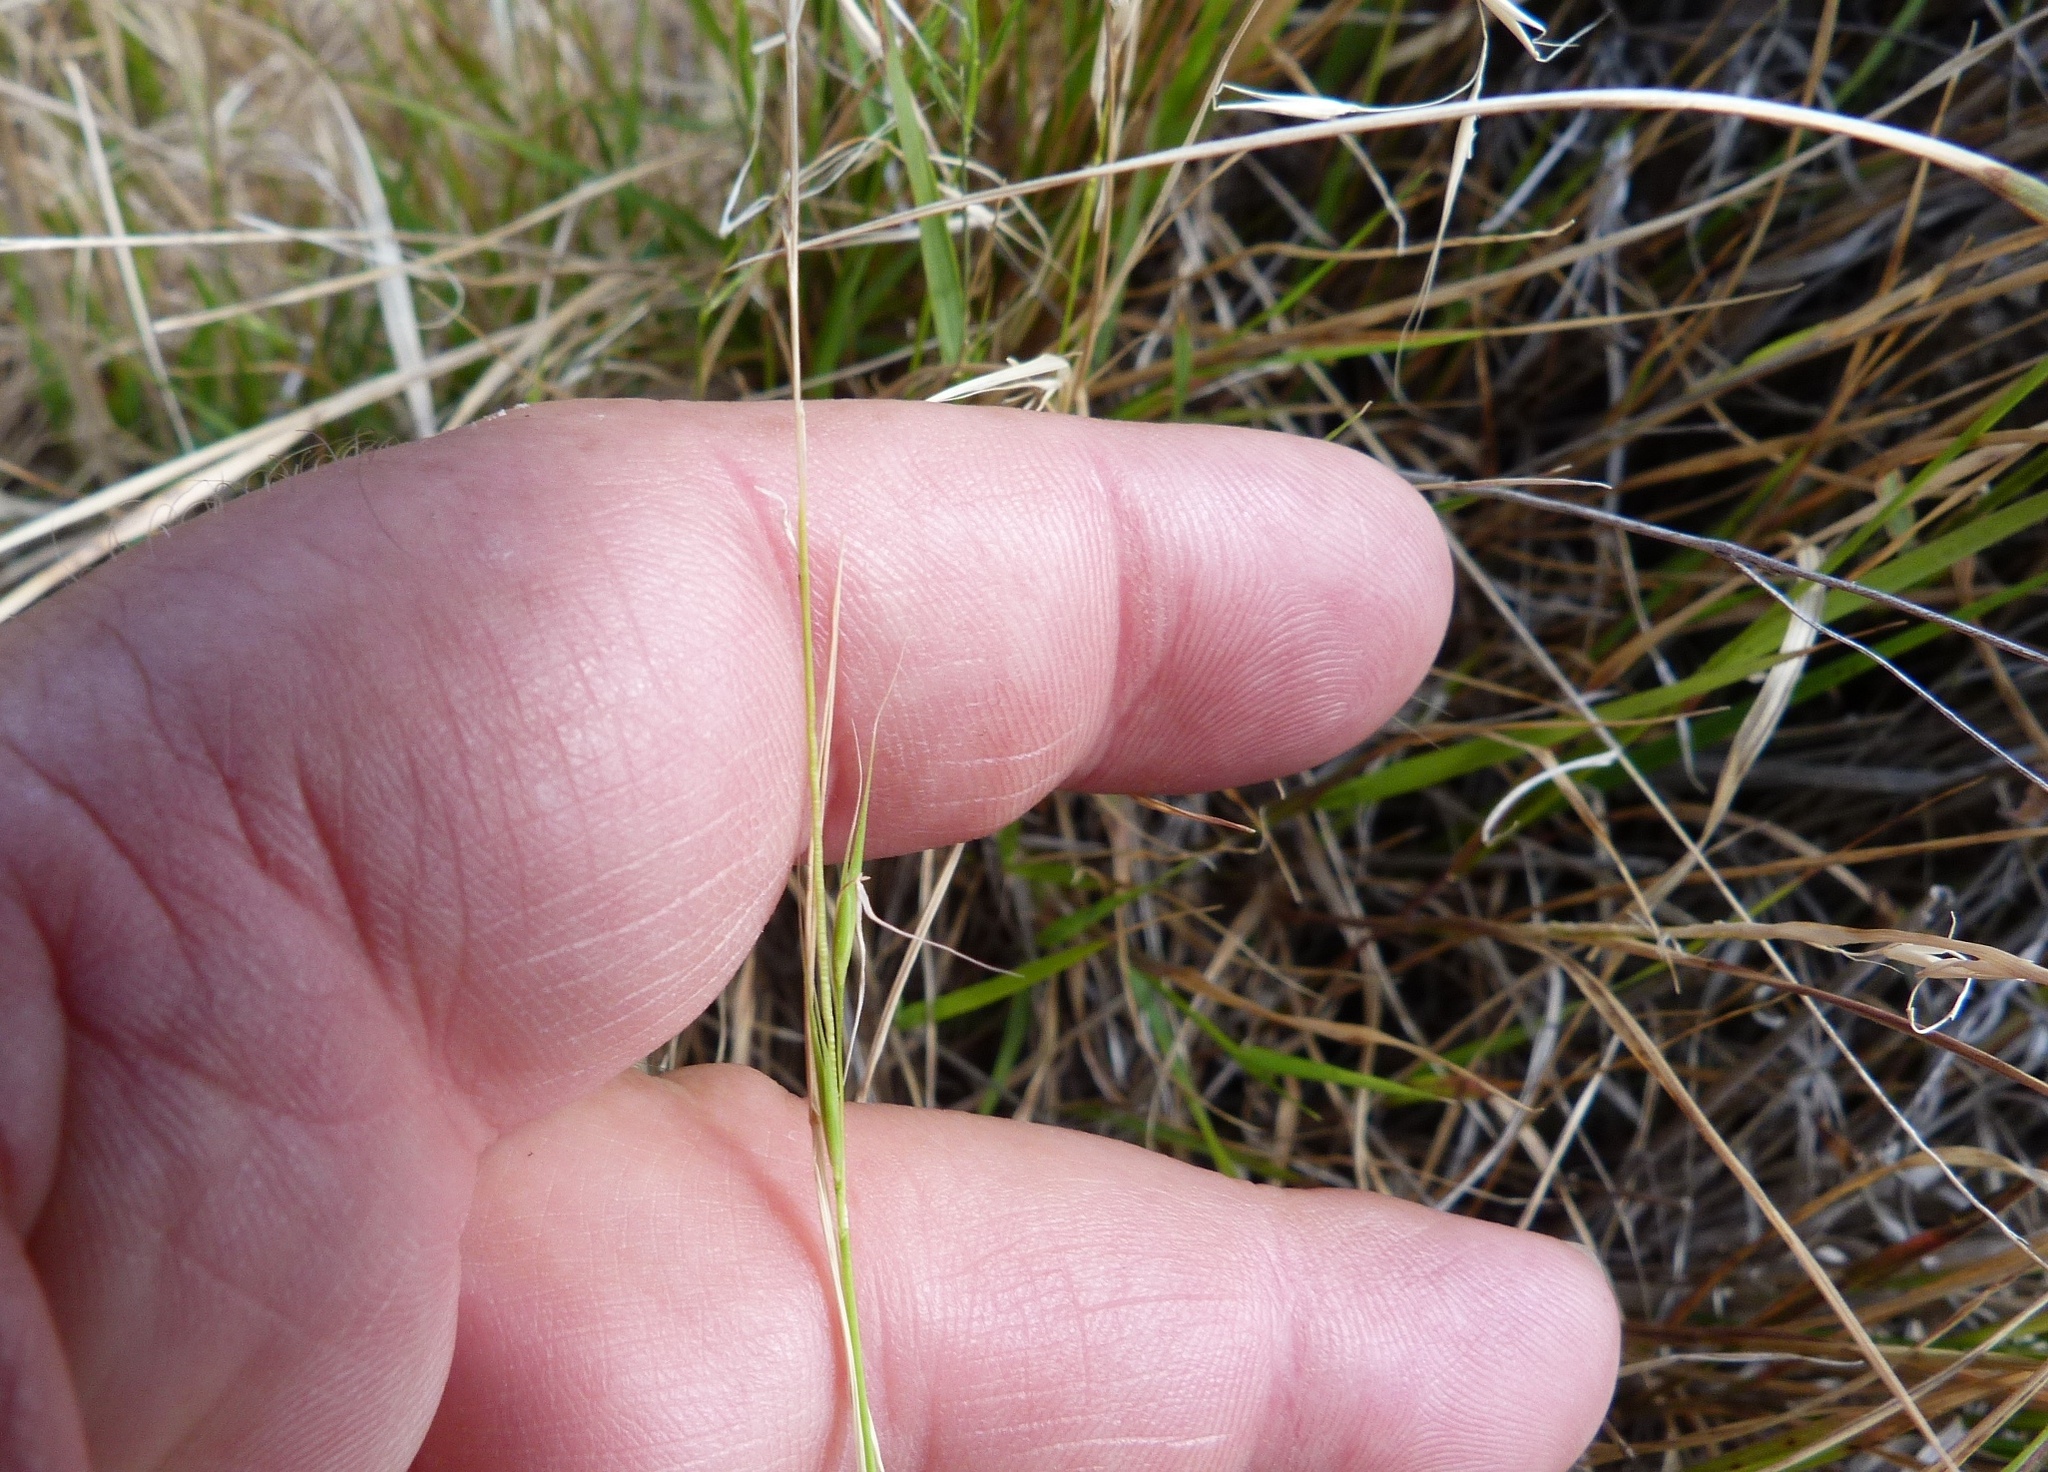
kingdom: Plantae
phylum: Tracheophyta
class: Liliopsida
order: Poales
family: Poaceae
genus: Microlaena
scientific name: Microlaena stipoides
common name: Meadow ricegrass
